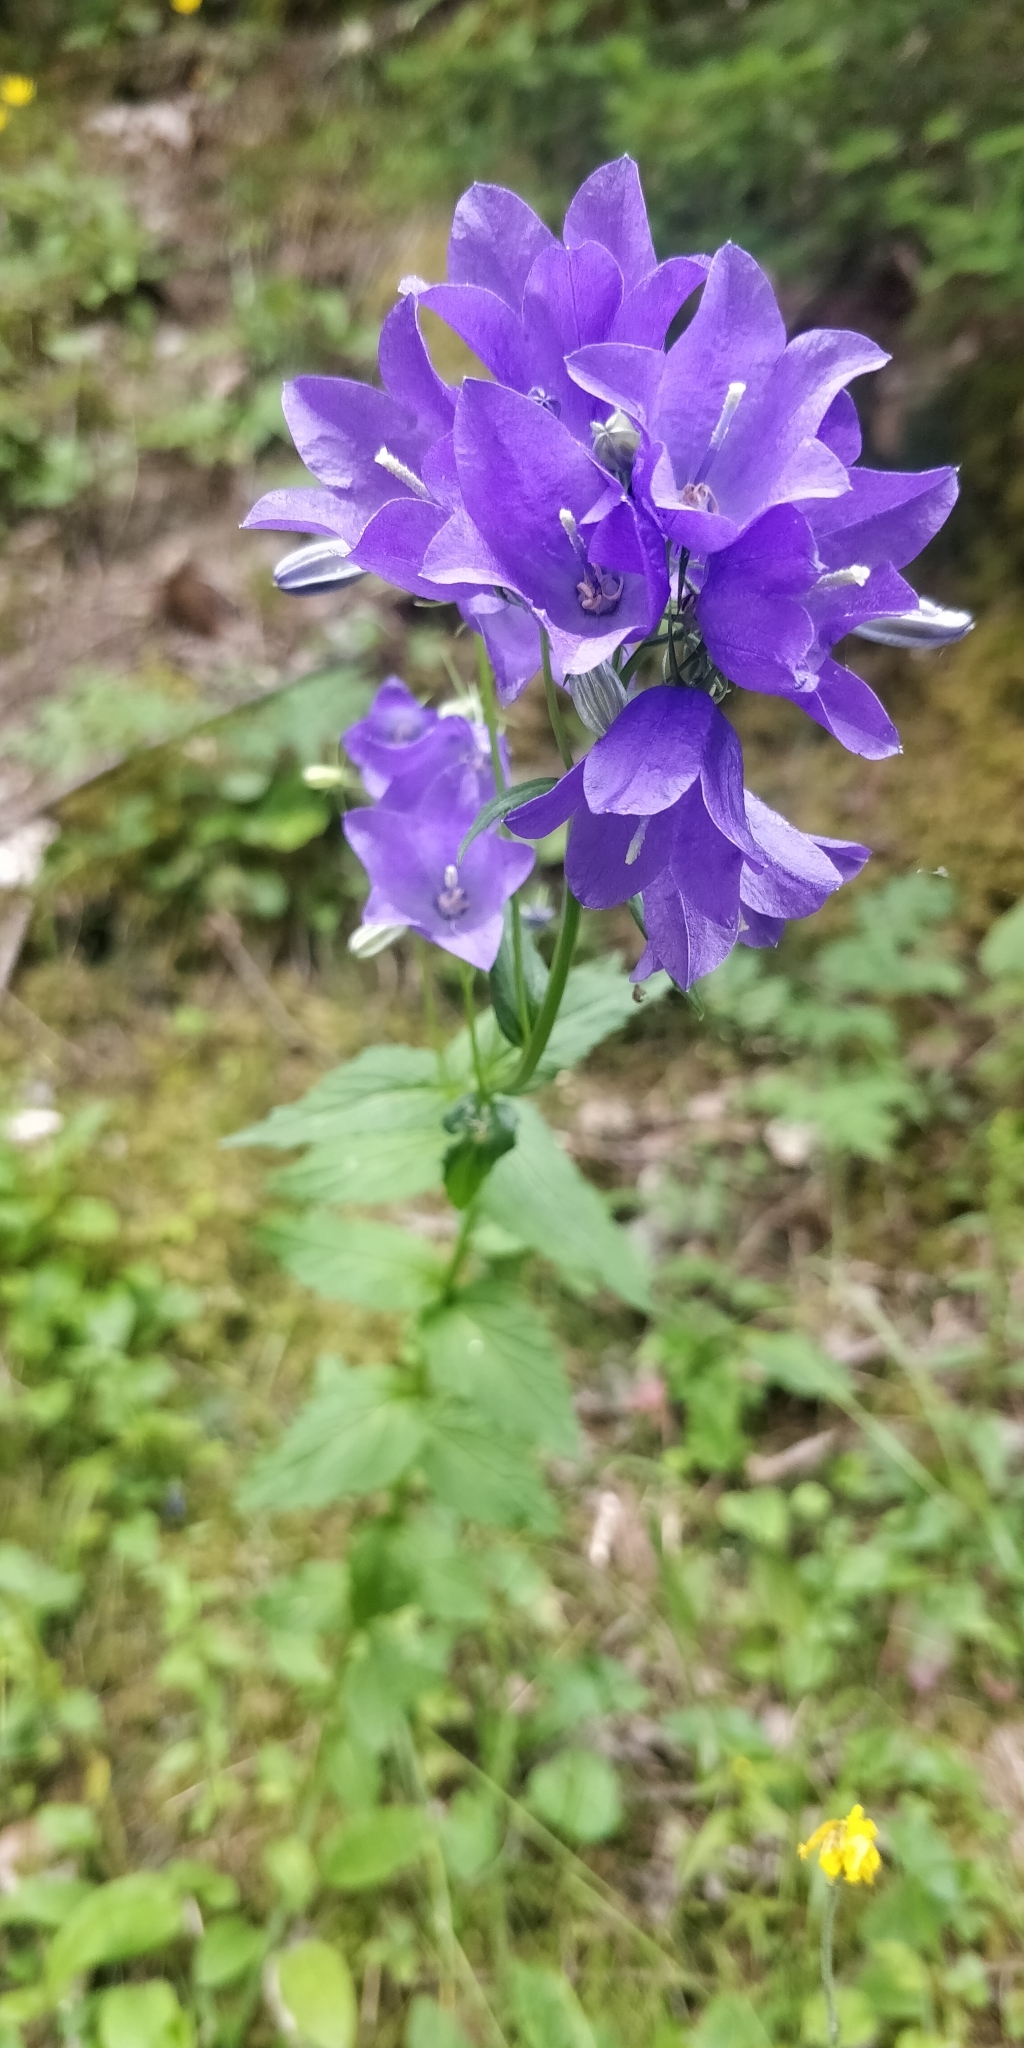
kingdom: Plantae
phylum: Tracheophyta
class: Magnoliopsida
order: Asterales
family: Campanulaceae
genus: Campanula
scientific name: Campanula rhomboidalis
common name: Broad-leaved harebell
